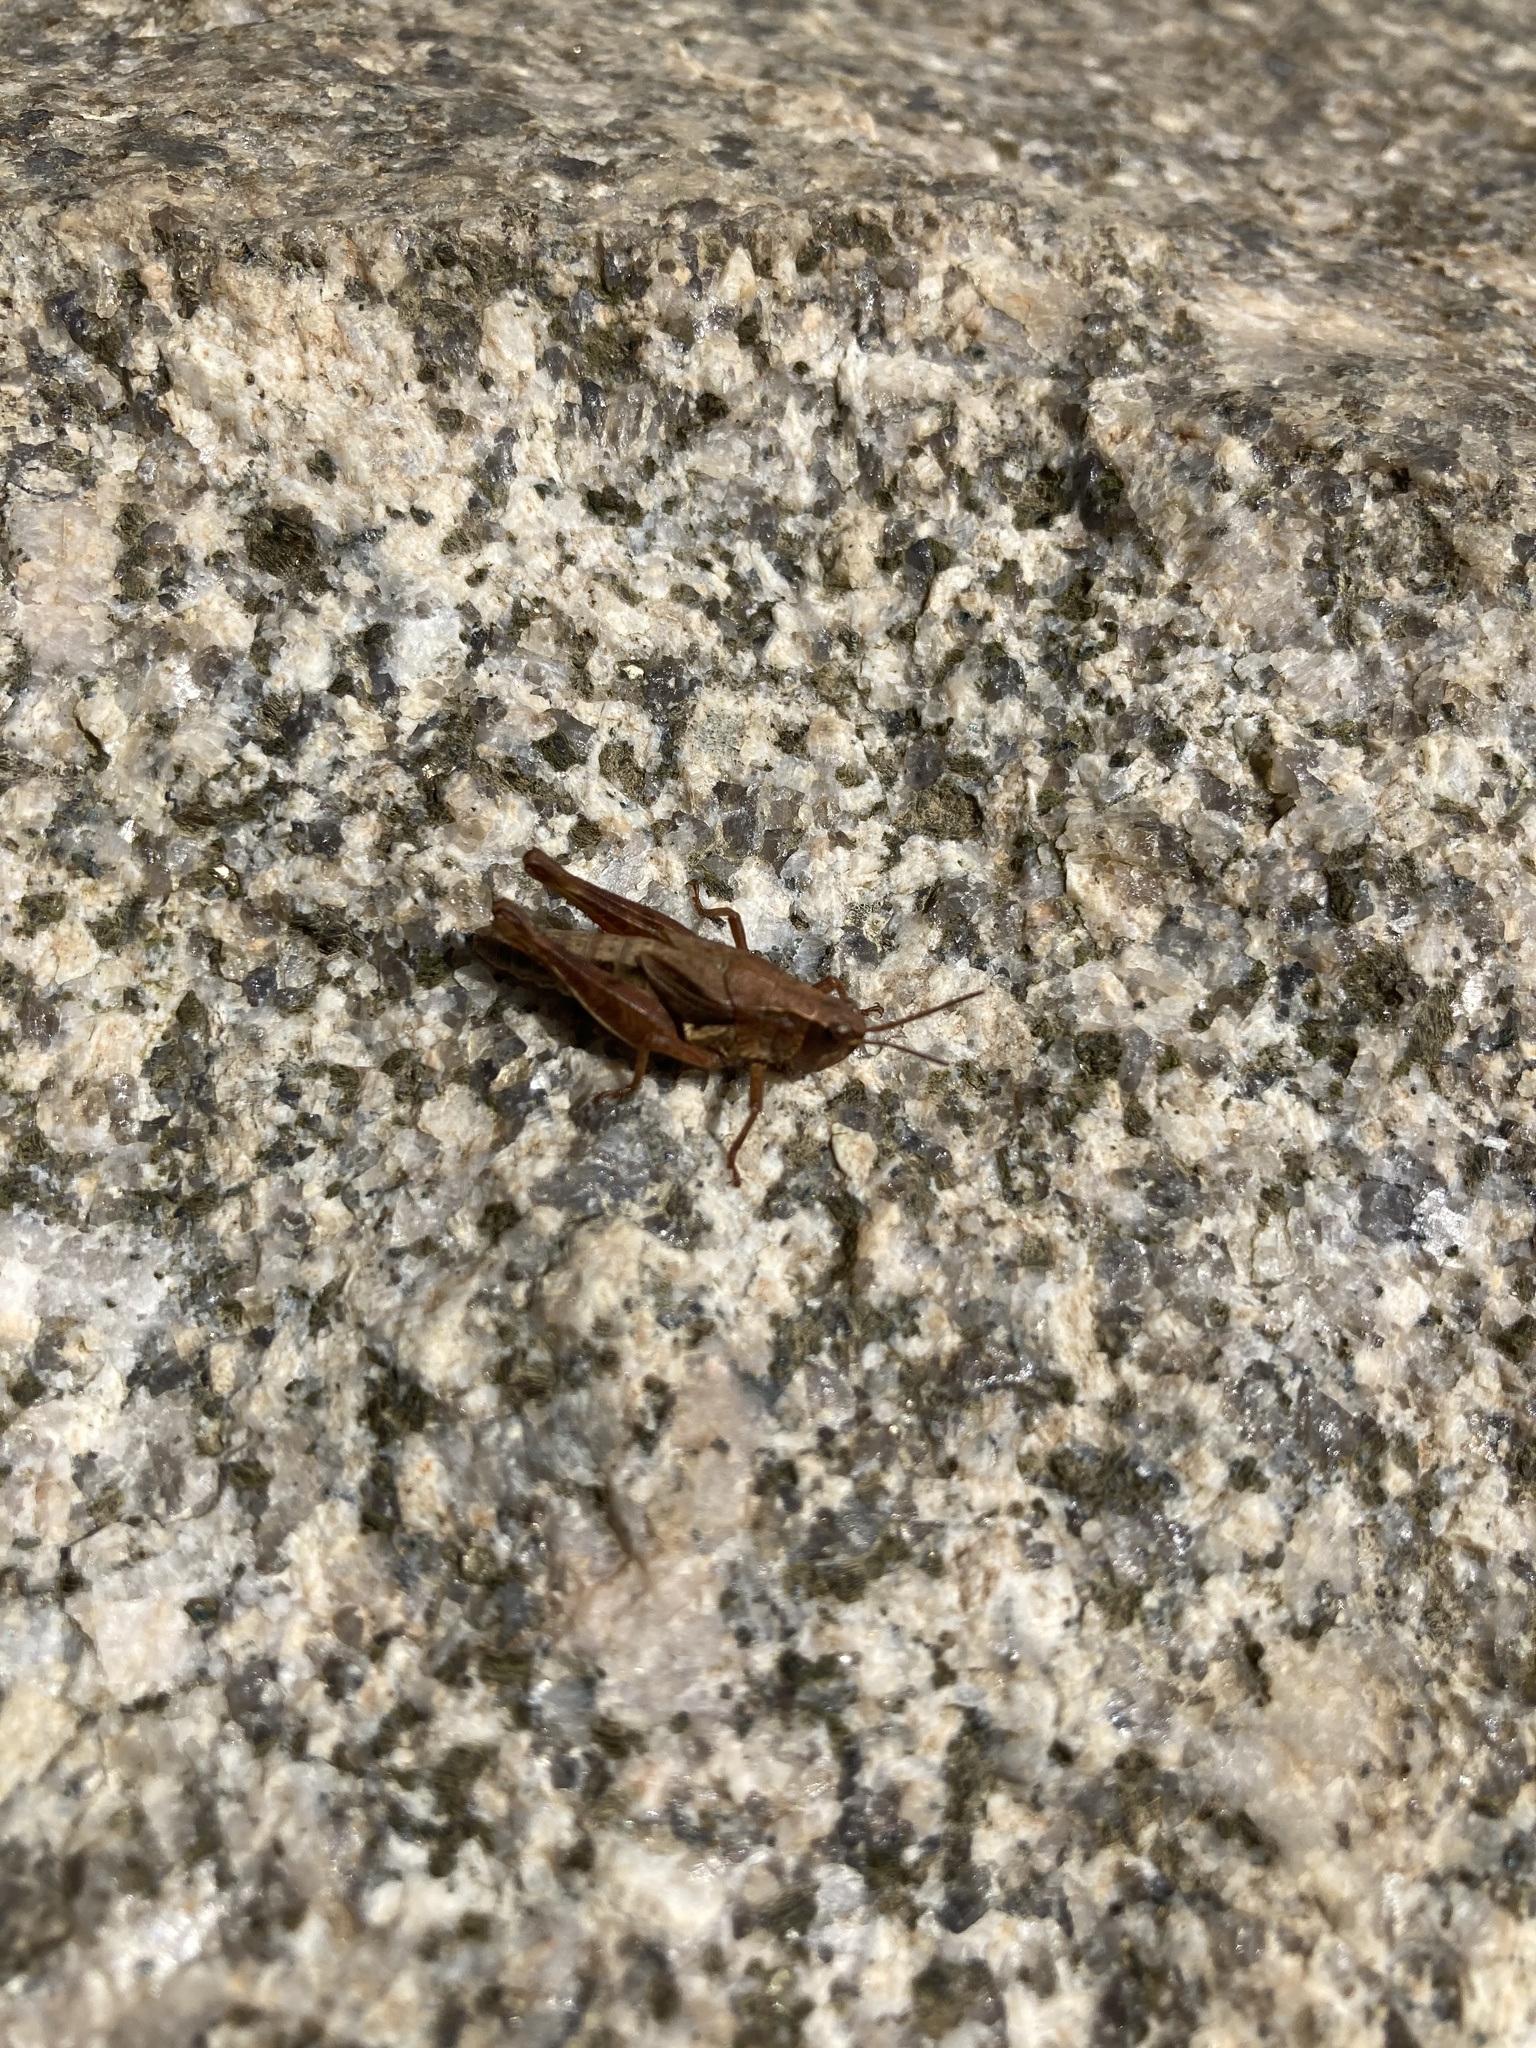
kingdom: Animalia
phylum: Arthropoda
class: Insecta
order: Orthoptera
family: Acrididae
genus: Phaulacridium
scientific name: Phaulacridium marginale
